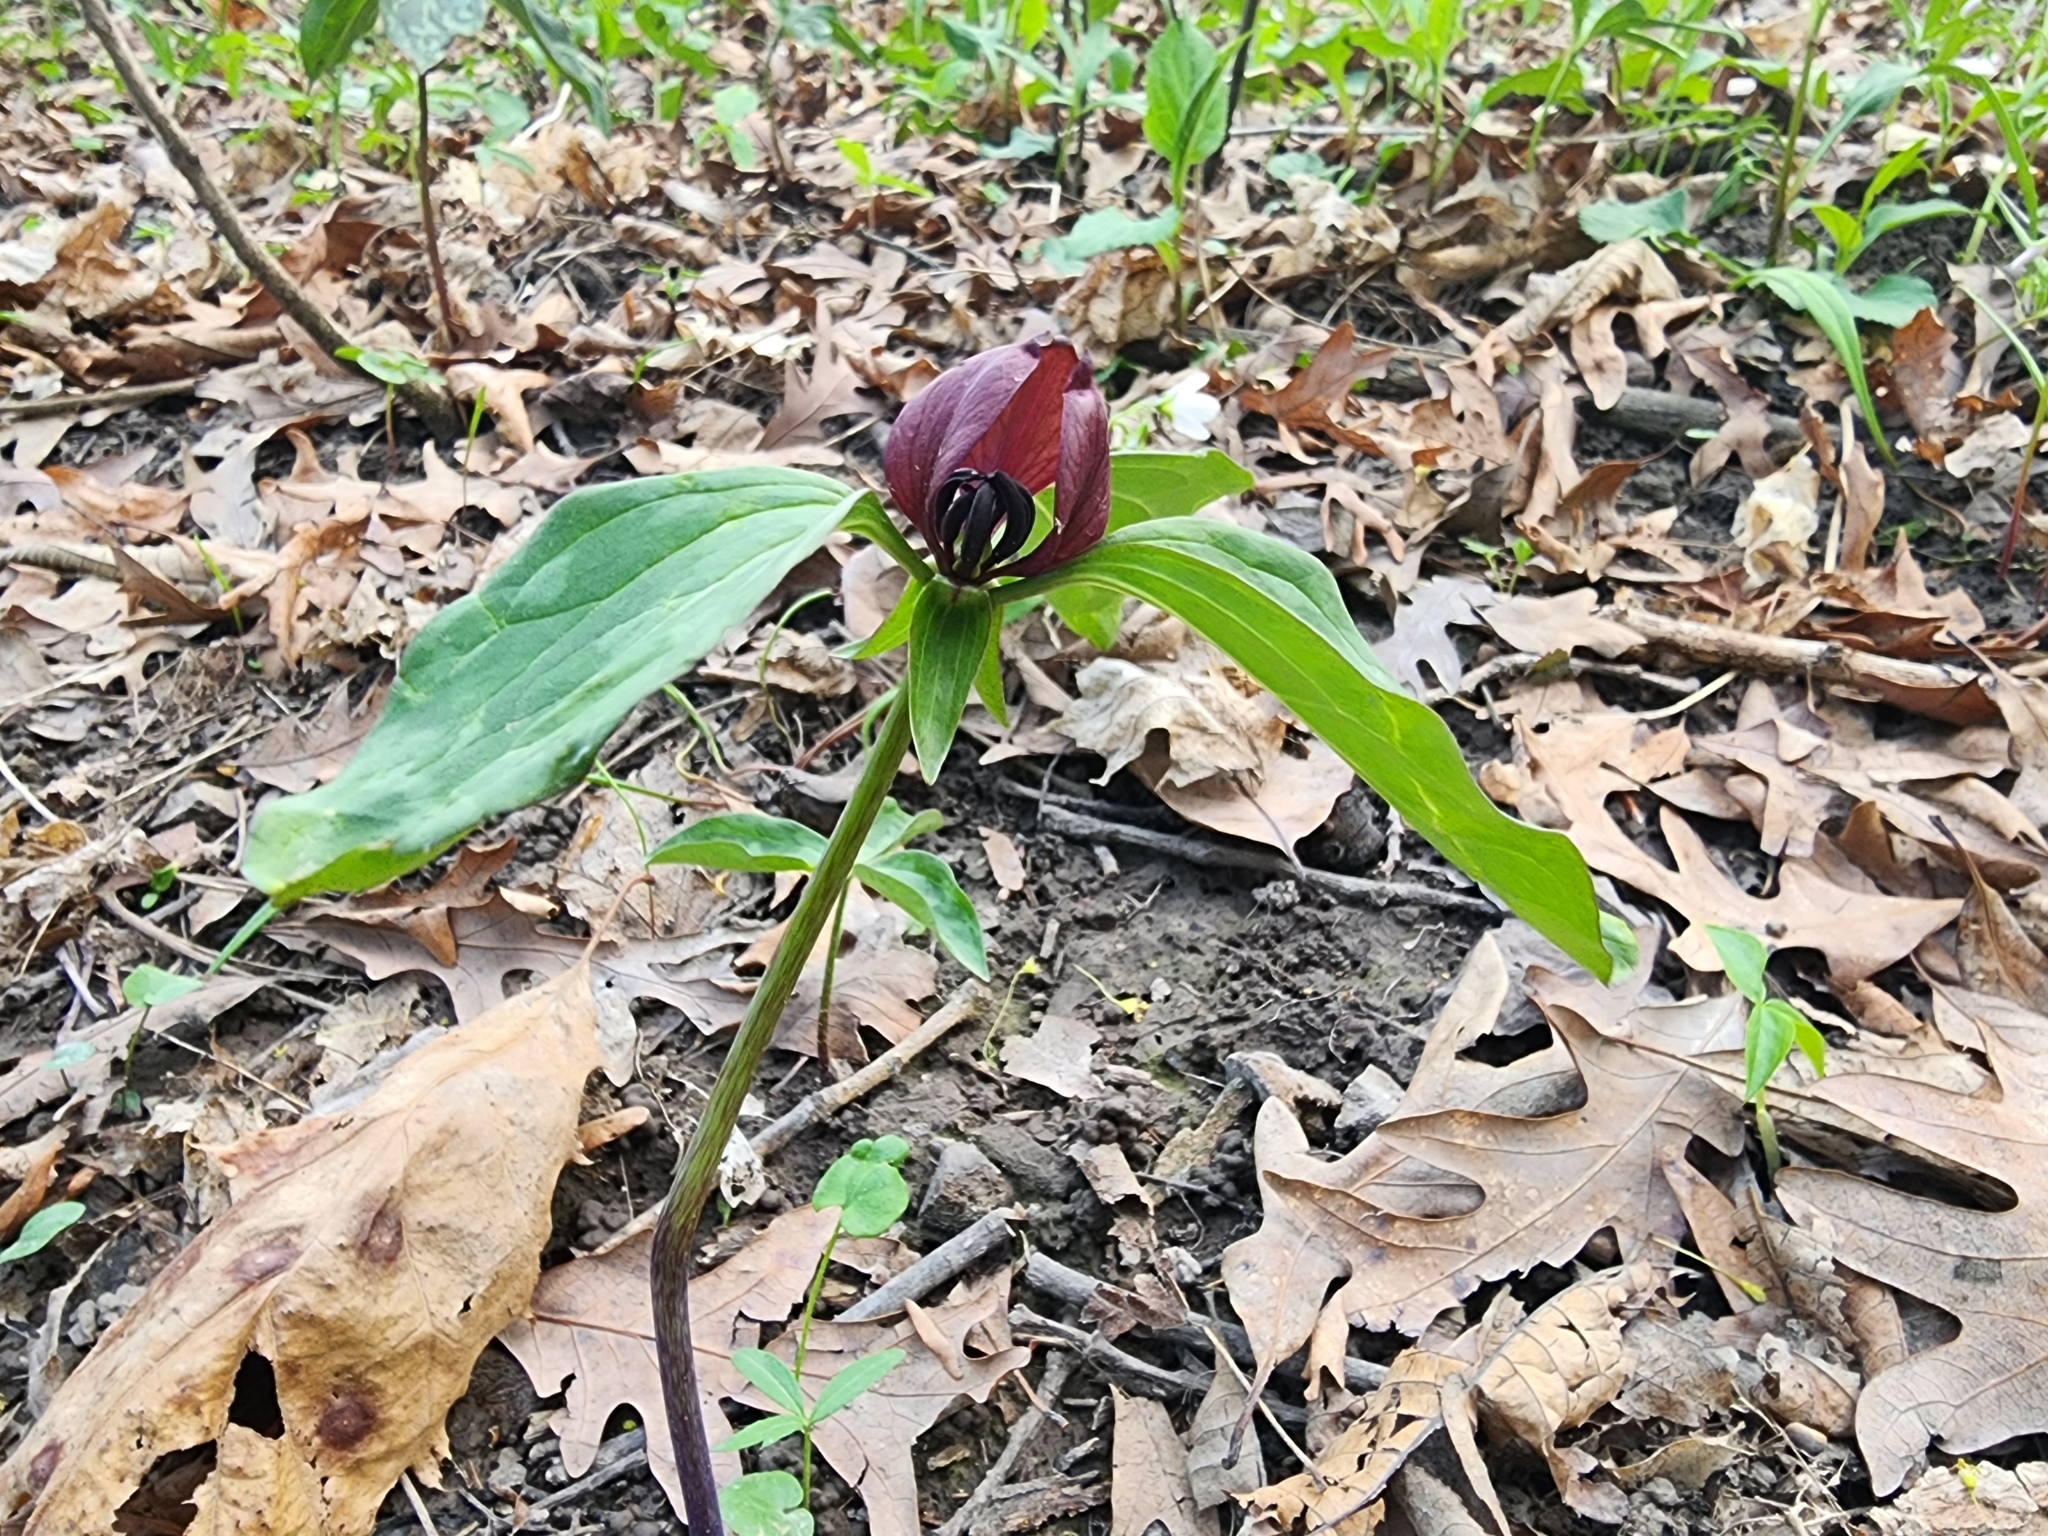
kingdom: Plantae
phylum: Tracheophyta
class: Liliopsida
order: Liliales
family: Melanthiaceae
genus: Trillium
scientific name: Trillium recurvatum
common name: Bloody butcher
